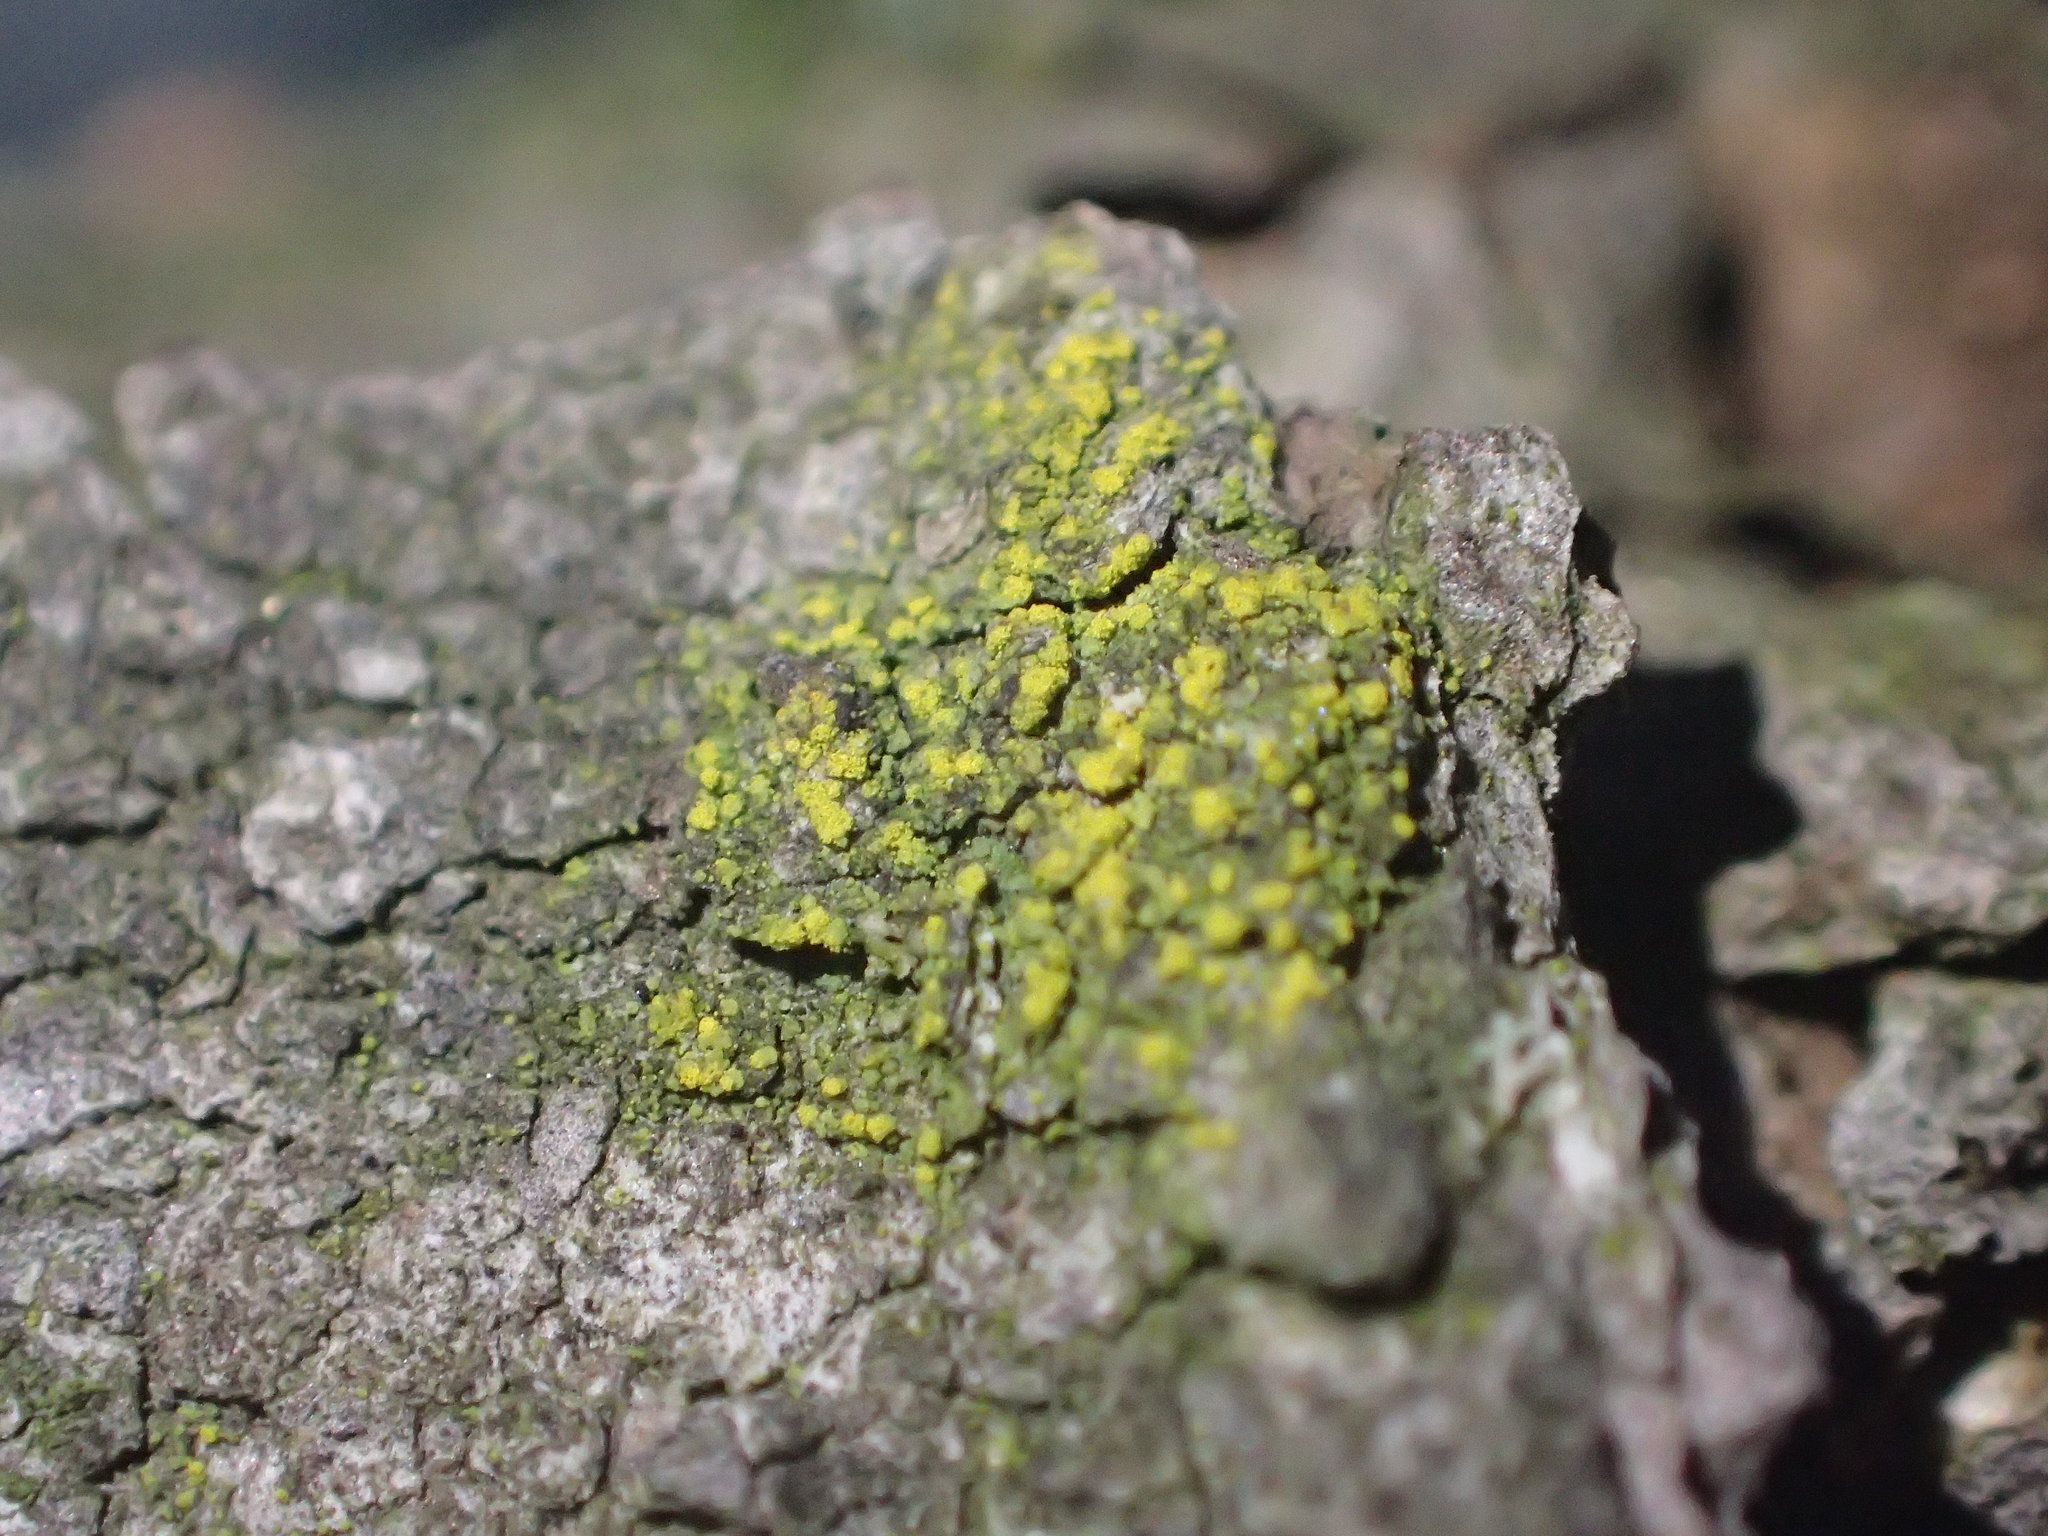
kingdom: Fungi
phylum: Ascomycota
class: Candelariomycetes
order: Candelariales
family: Candelariaceae
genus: Candelaria
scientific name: Candelaria concolor
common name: Candleflame lichen
